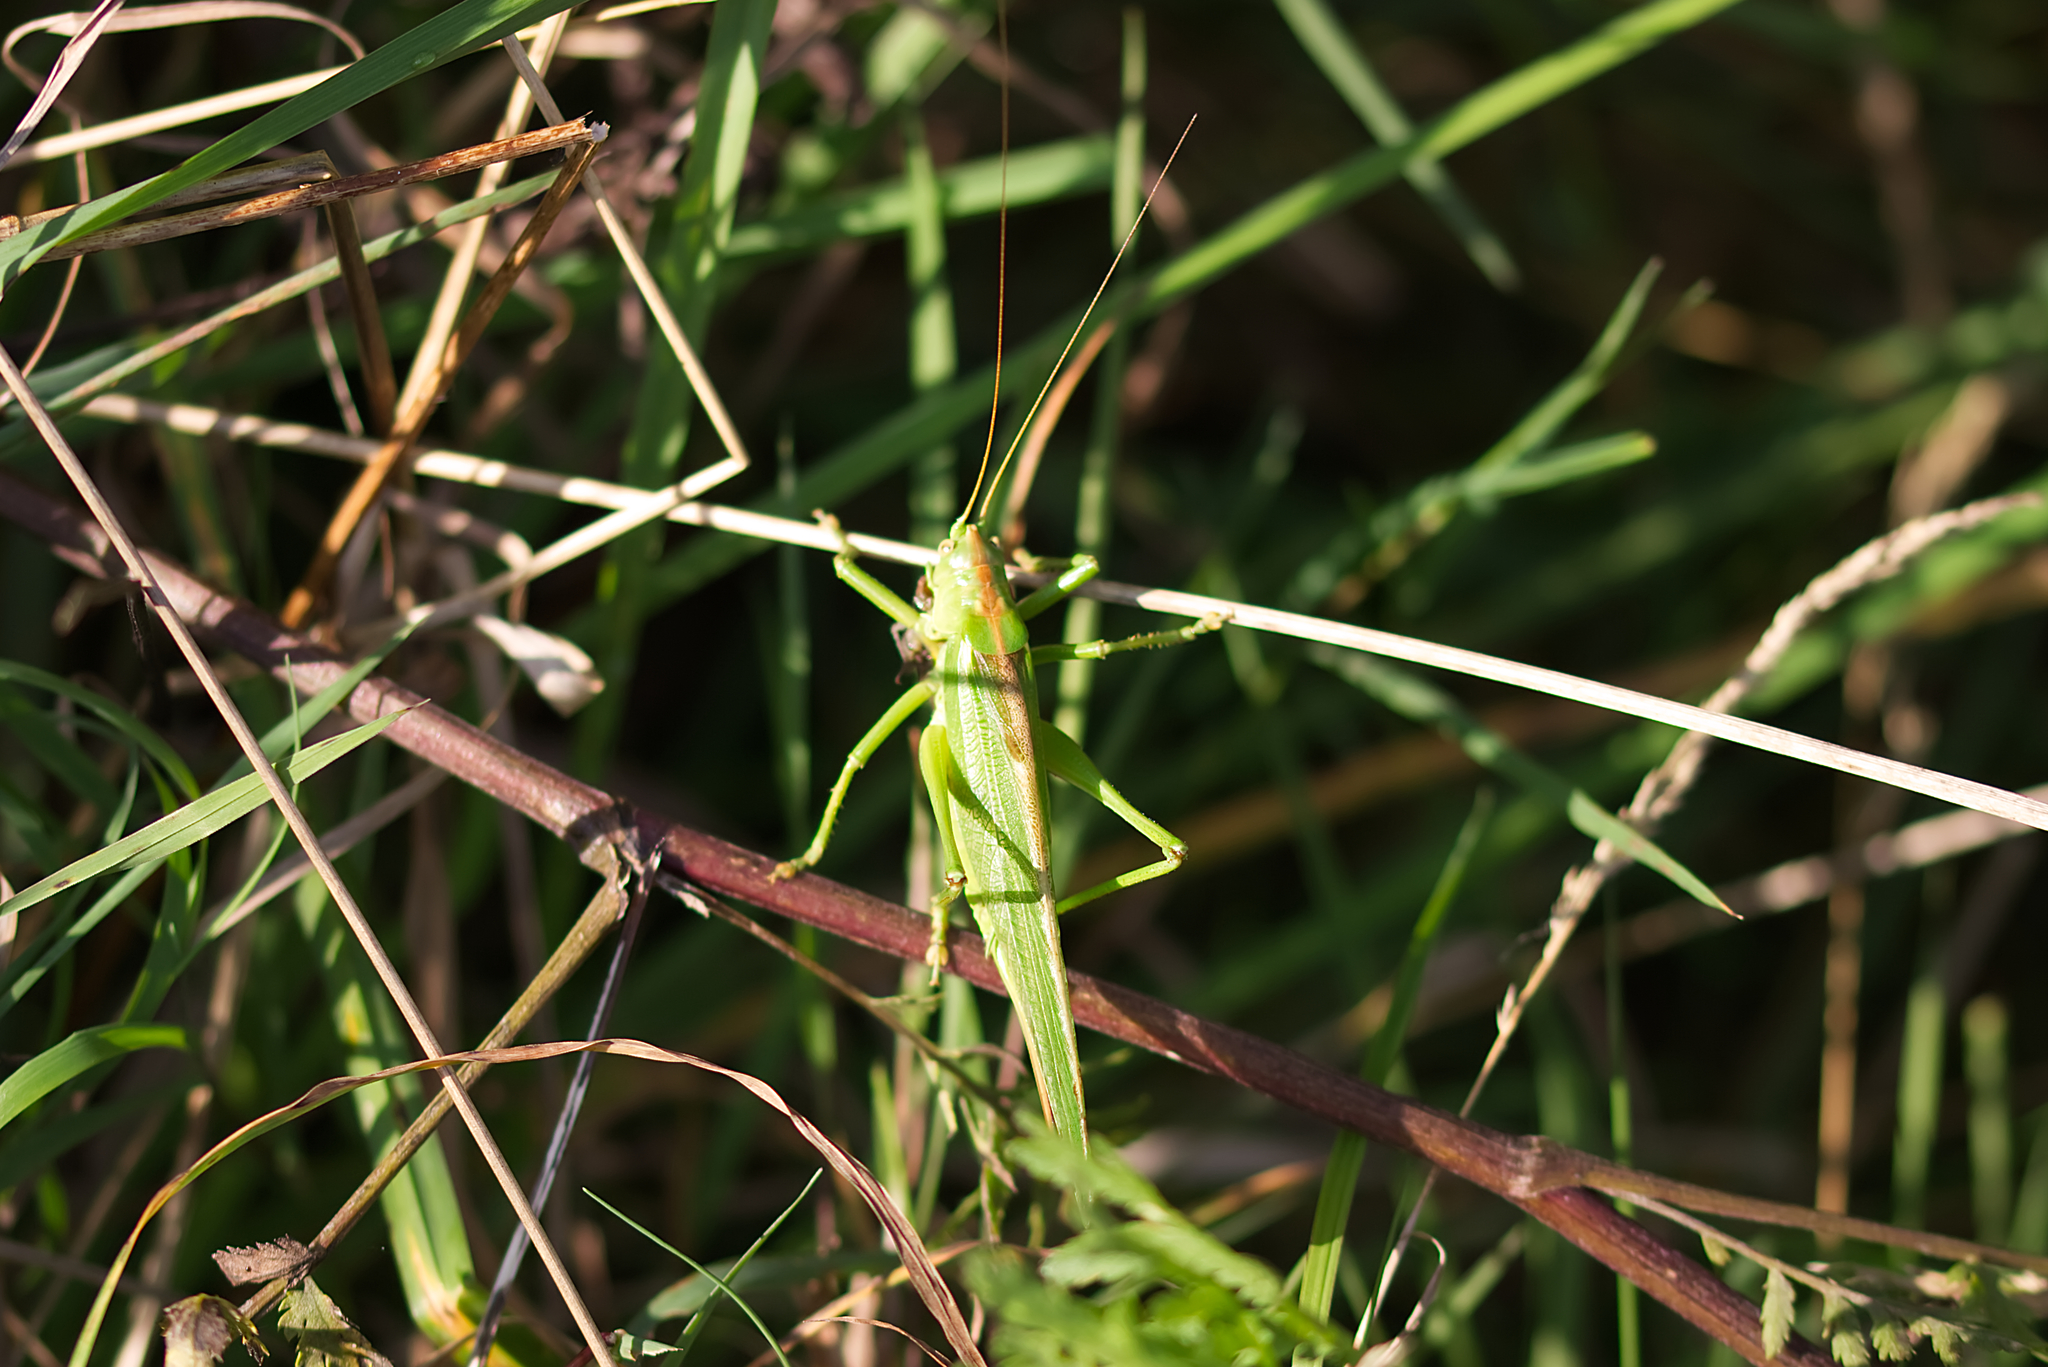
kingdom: Animalia
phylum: Arthropoda
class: Insecta
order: Orthoptera
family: Tettigoniidae
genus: Tettigonia
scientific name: Tettigonia viridissima
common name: Great green bush-cricket
